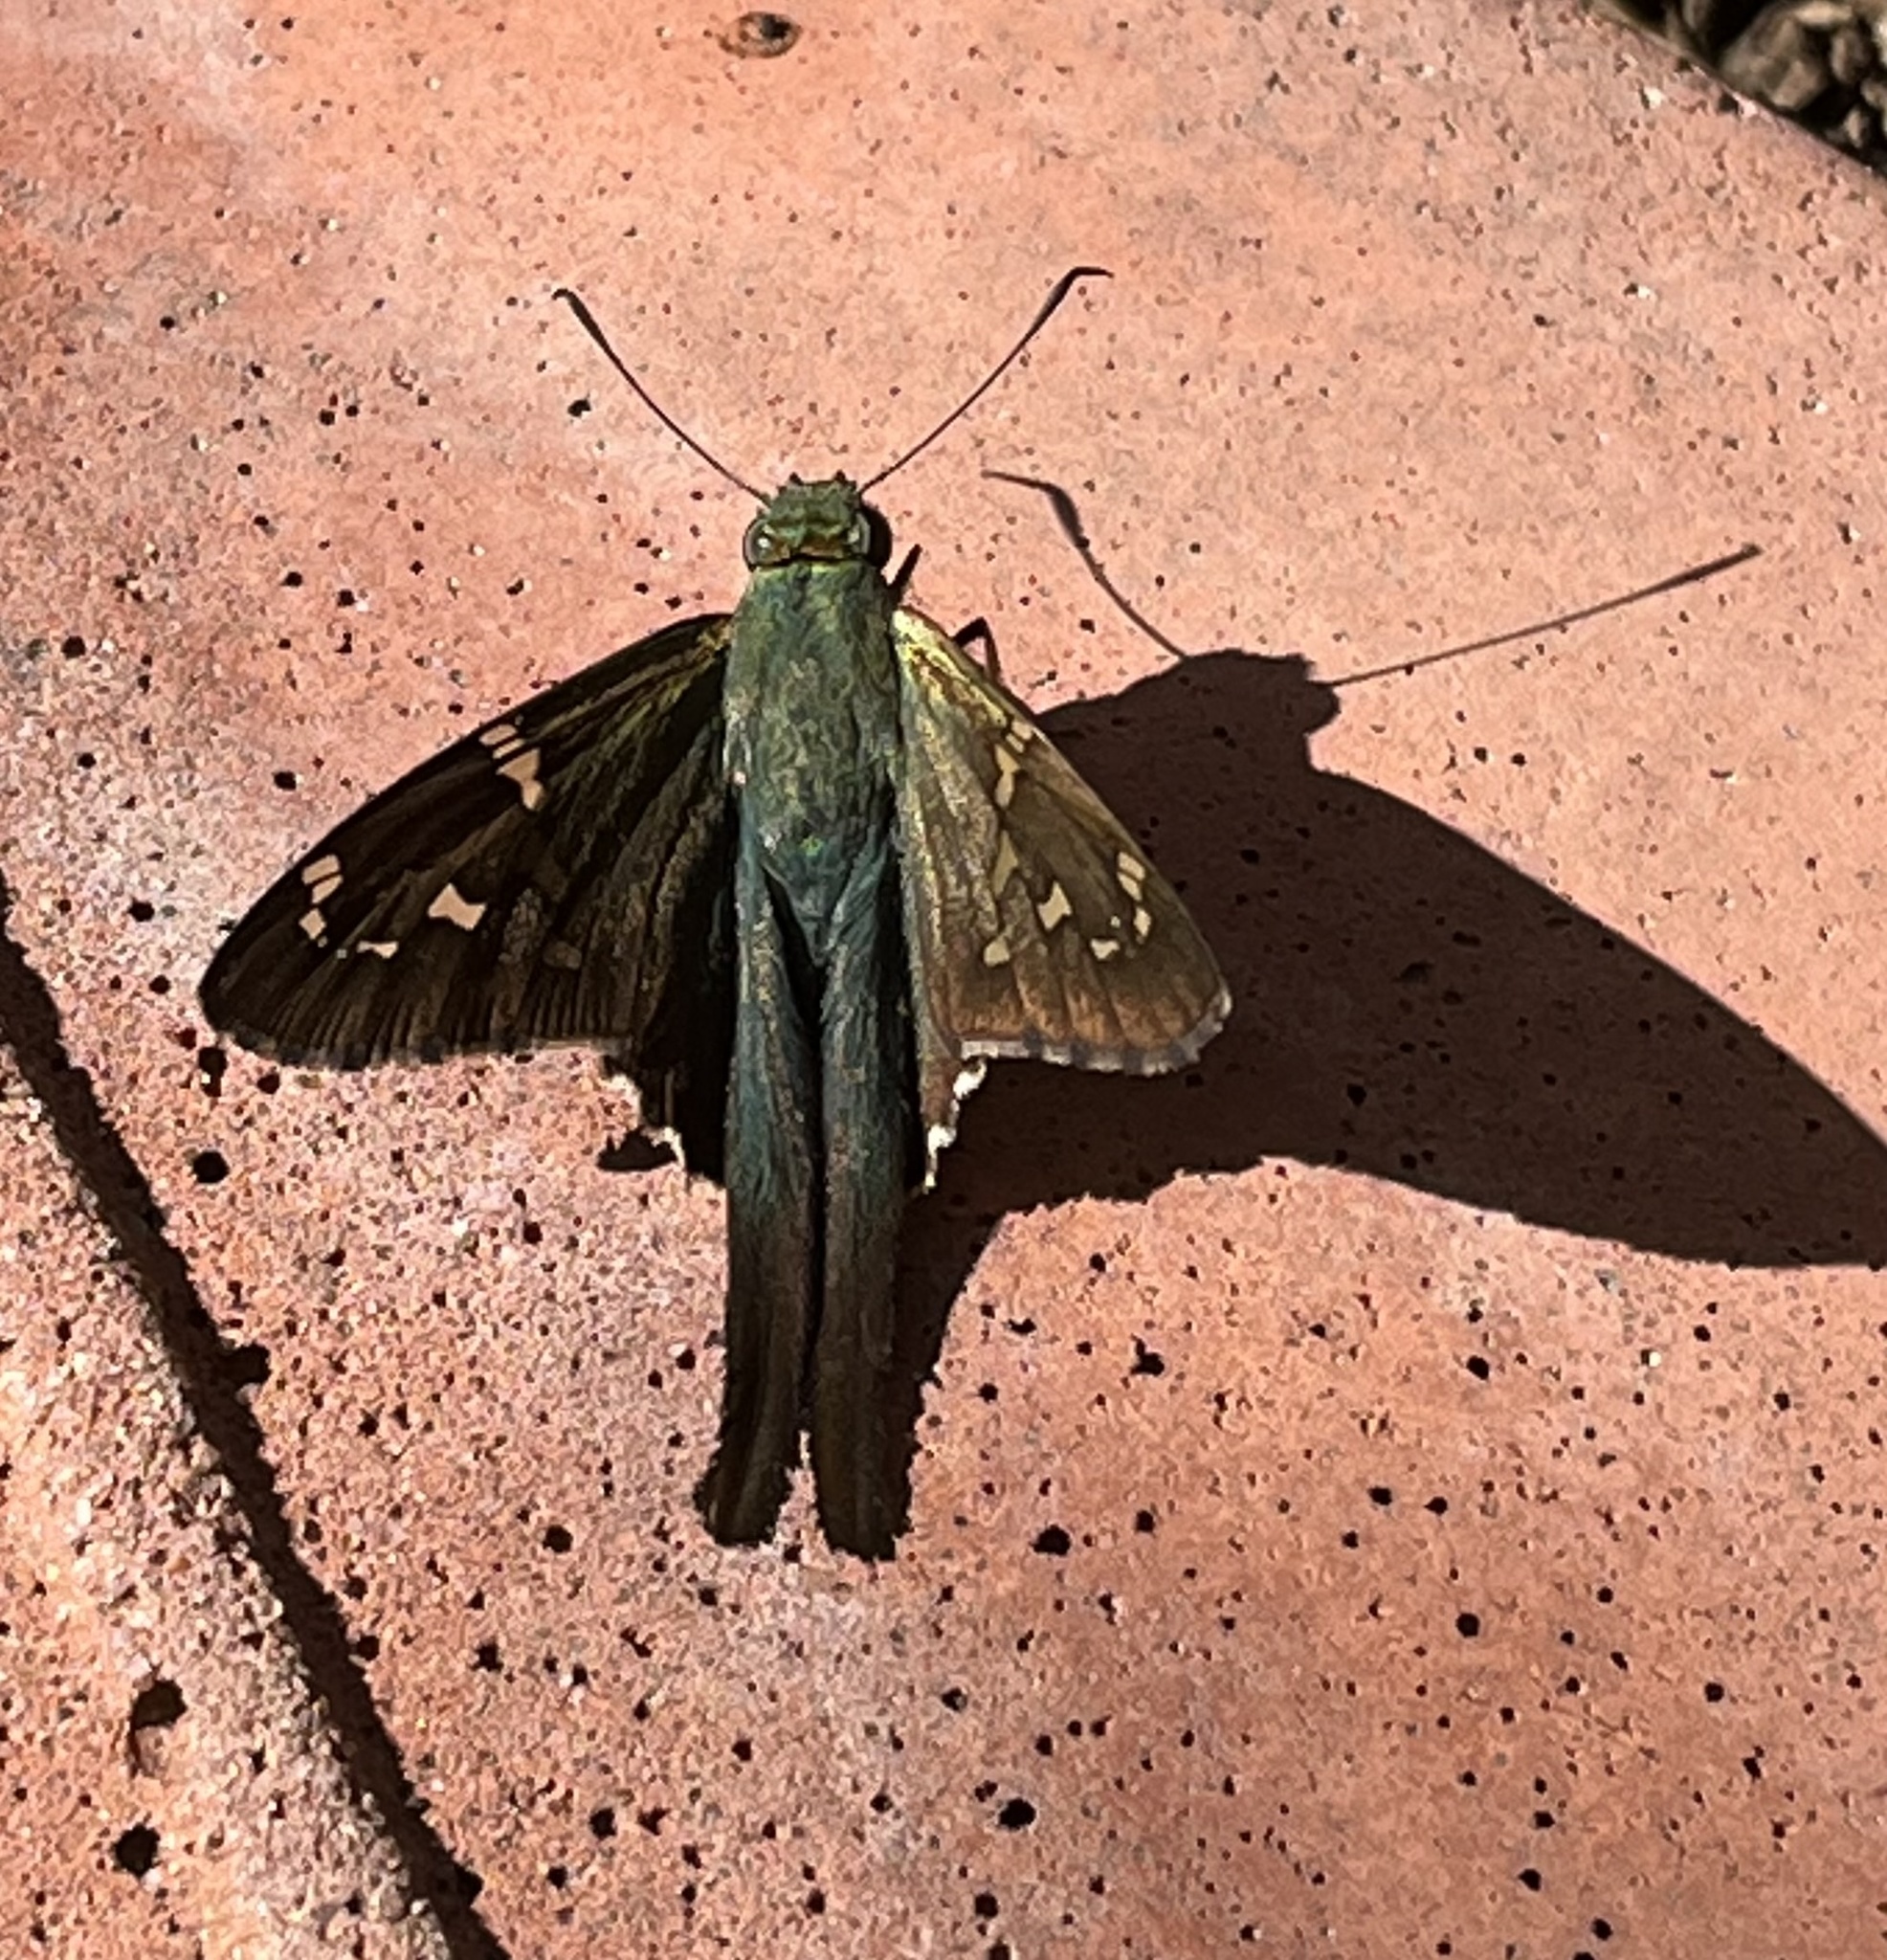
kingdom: Animalia
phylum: Arthropoda
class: Insecta
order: Lepidoptera
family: Hesperiidae
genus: Urbanus
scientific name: Urbanus proteus
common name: Long-tailed skipper
